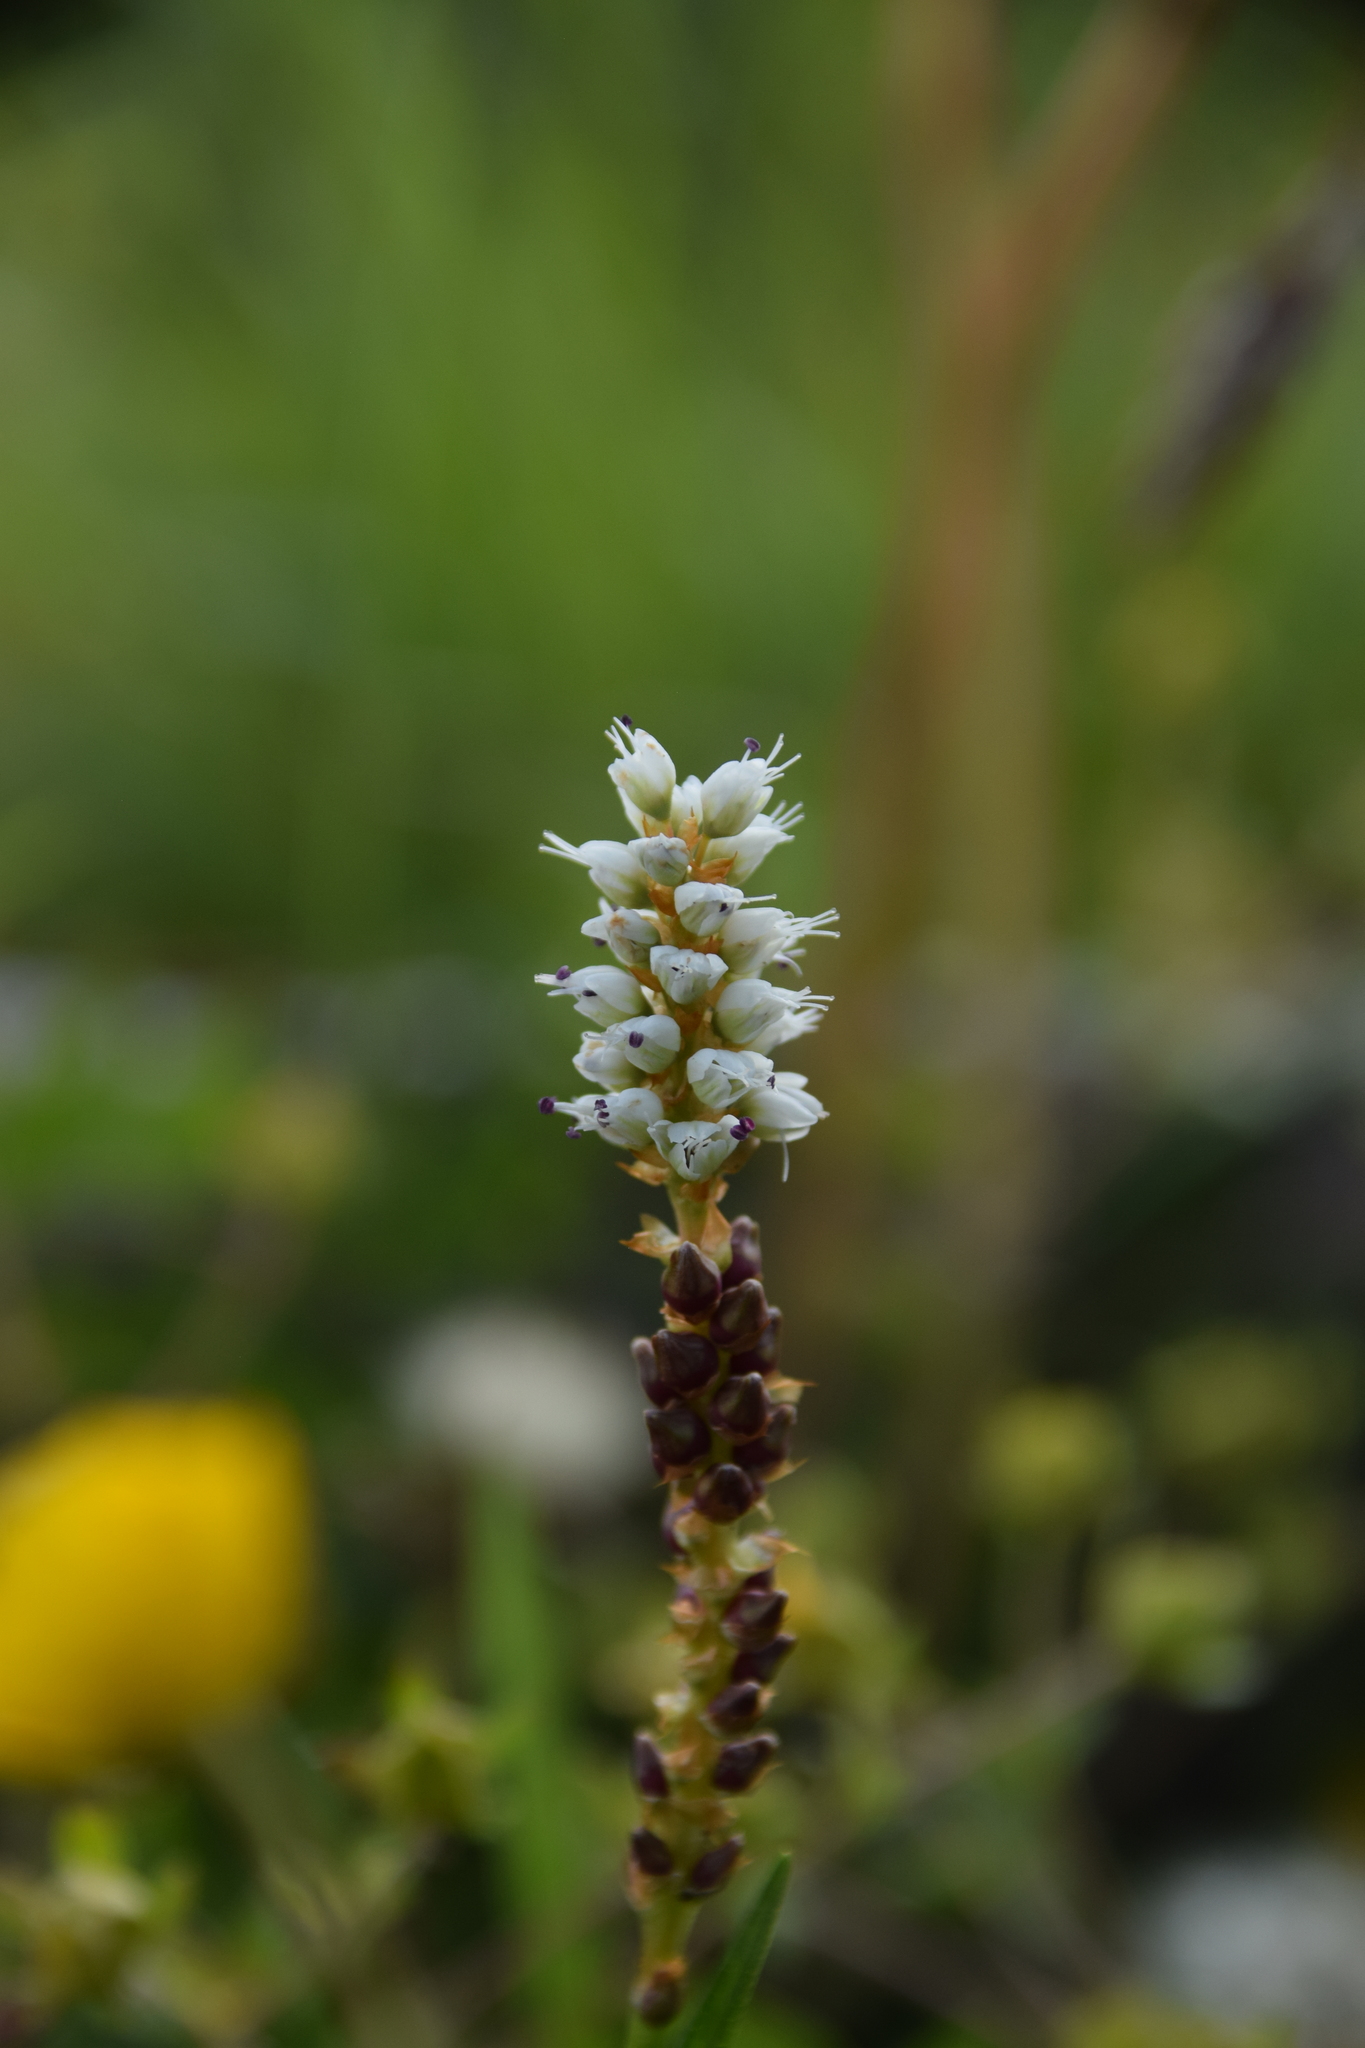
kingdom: Plantae
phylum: Tracheophyta
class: Magnoliopsida
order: Caryophyllales
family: Polygonaceae
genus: Bistorta
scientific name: Bistorta vivipara
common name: Alpine bistort
